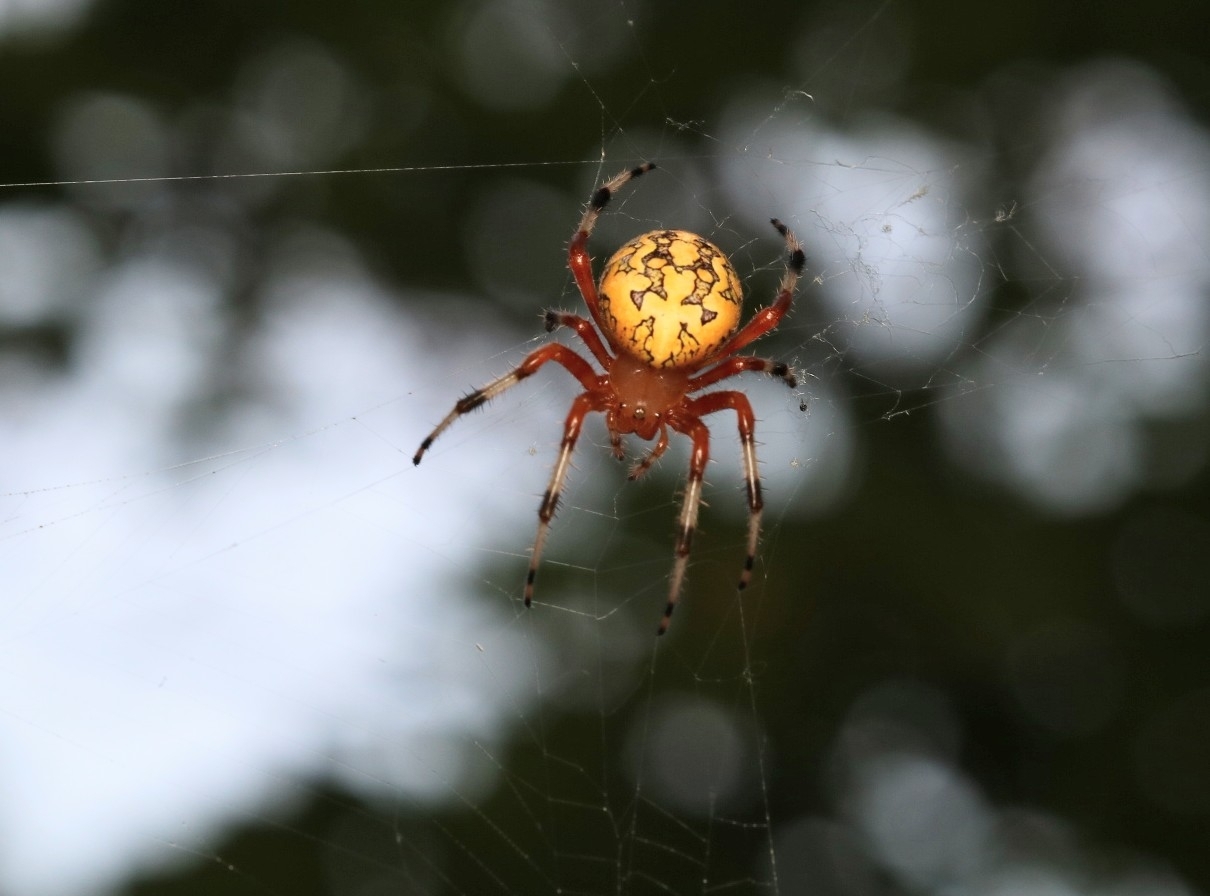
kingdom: Animalia
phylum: Arthropoda
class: Arachnida
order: Araneae
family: Araneidae
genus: Araneus
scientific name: Araneus marmoreus
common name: Marbled orbweaver
